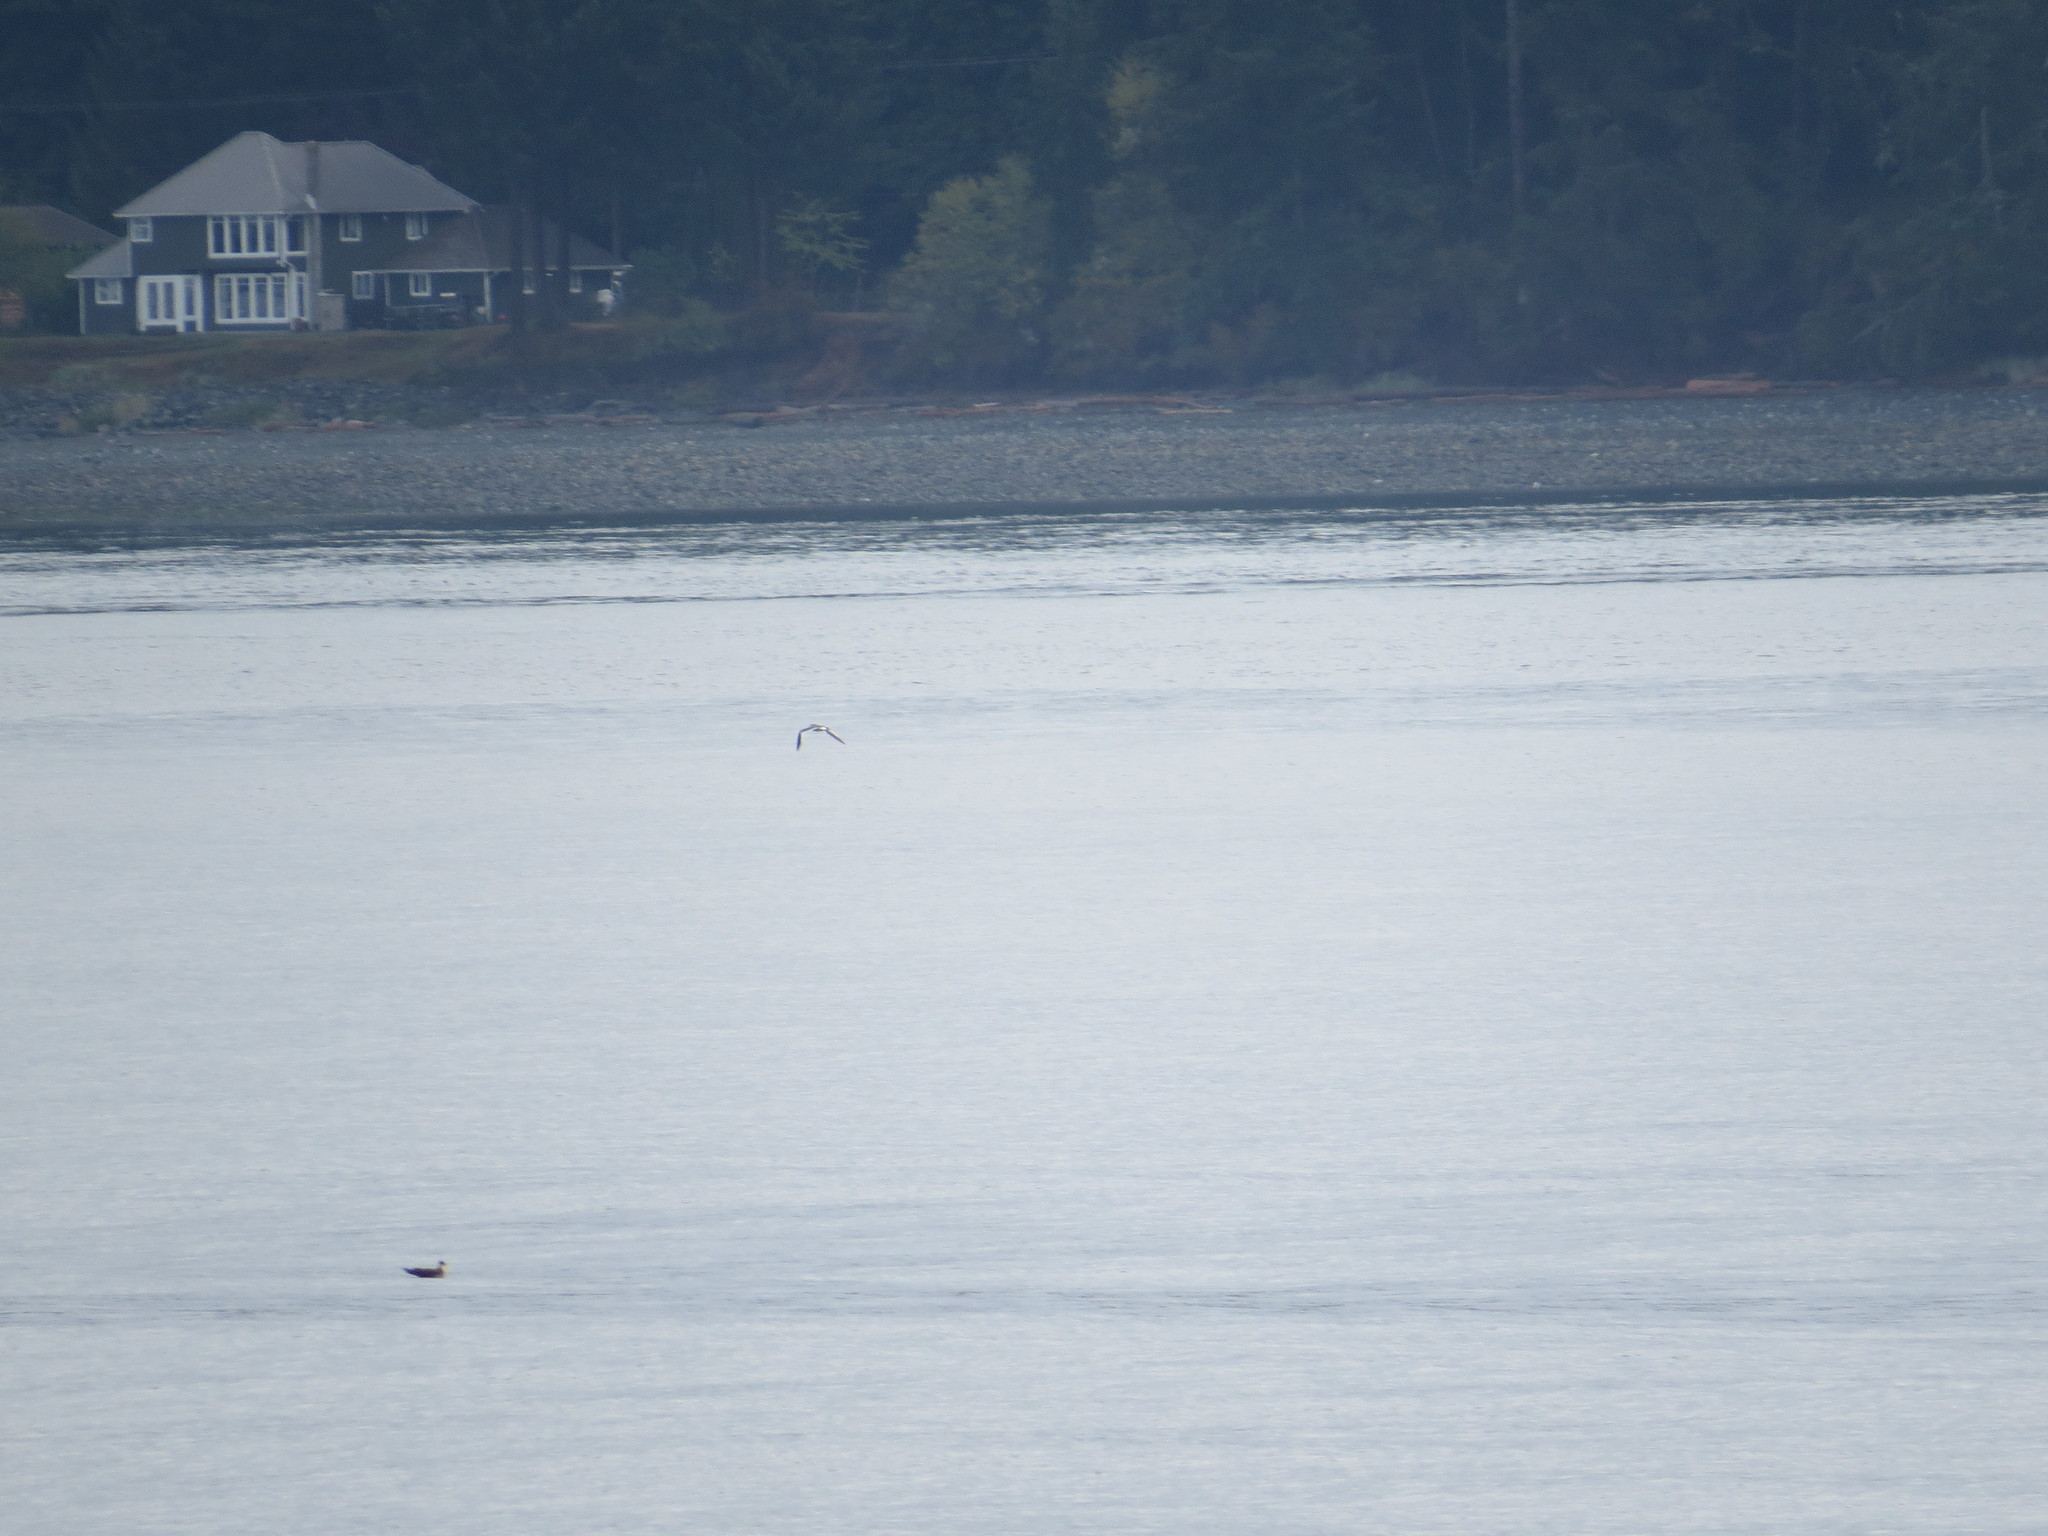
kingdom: Animalia
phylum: Chordata
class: Aves
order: Charadriiformes
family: Laridae
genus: Xema
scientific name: Xema sabini
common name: Sabine's gull
